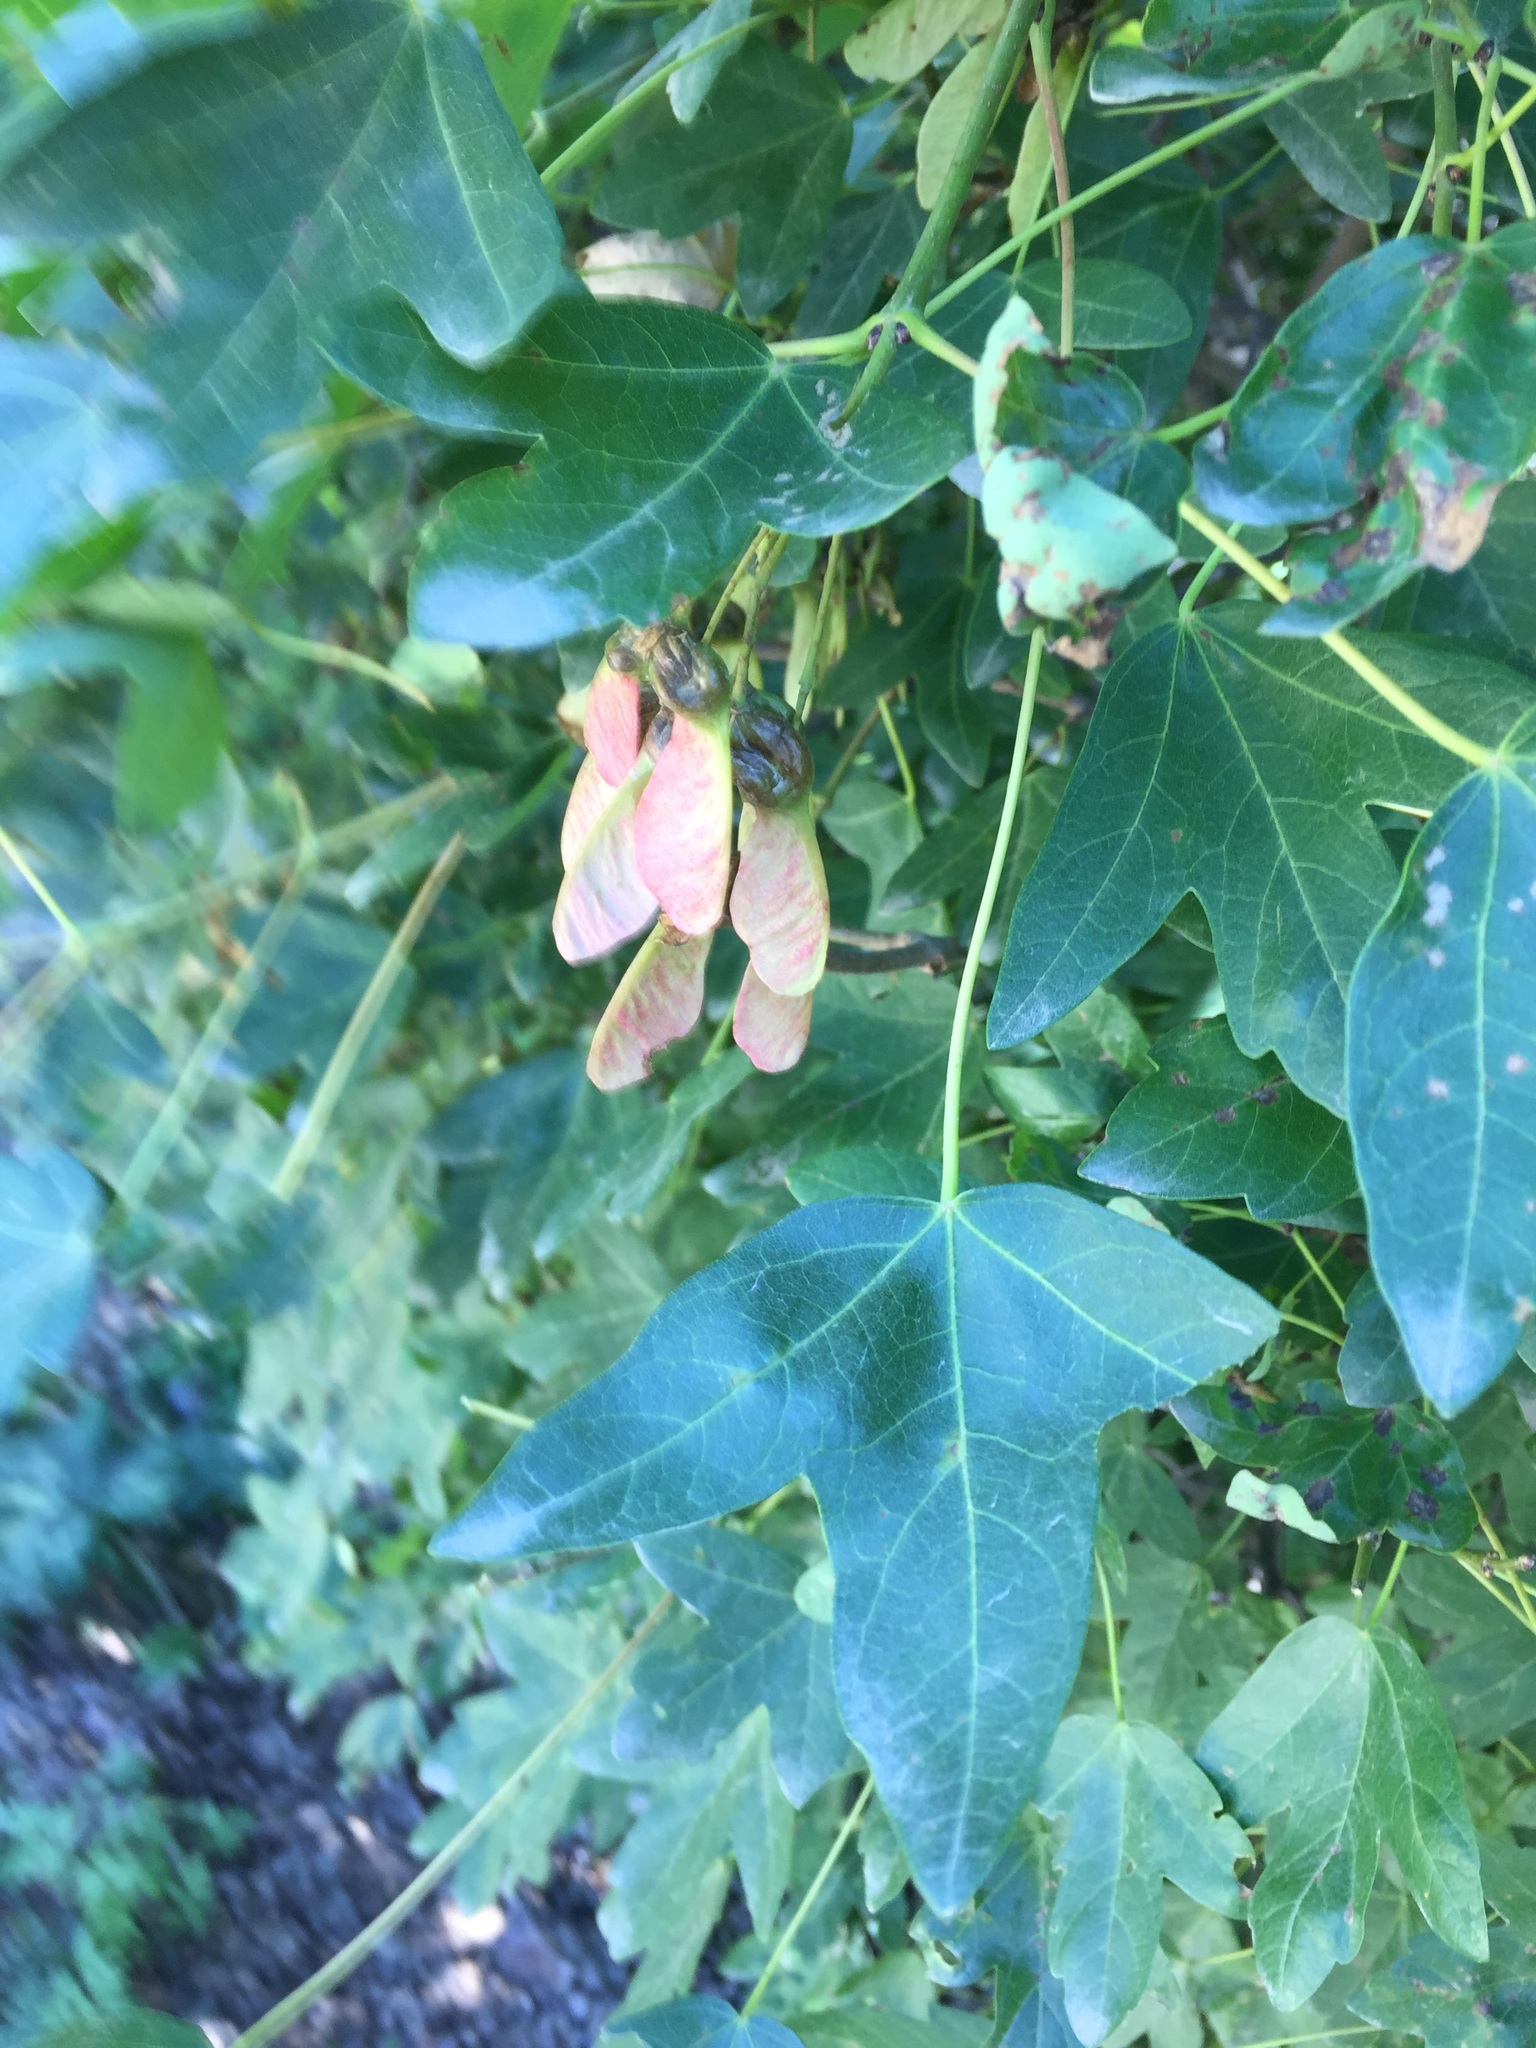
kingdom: Plantae
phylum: Tracheophyta
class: Magnoliopsida
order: Sapindales
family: Sapindaceae
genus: Acer
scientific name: Acer monspessulanum
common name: Montpellier maple
